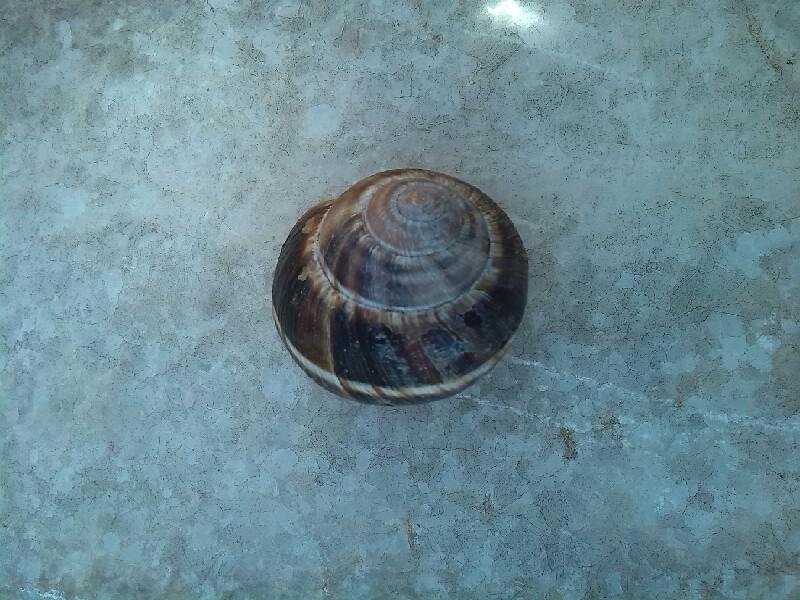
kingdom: Animalia
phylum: Mollusca
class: Gastropoda
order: Stylommatophora
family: Helicidae
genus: Helix
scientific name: Helix lucorum
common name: Turkish snail
